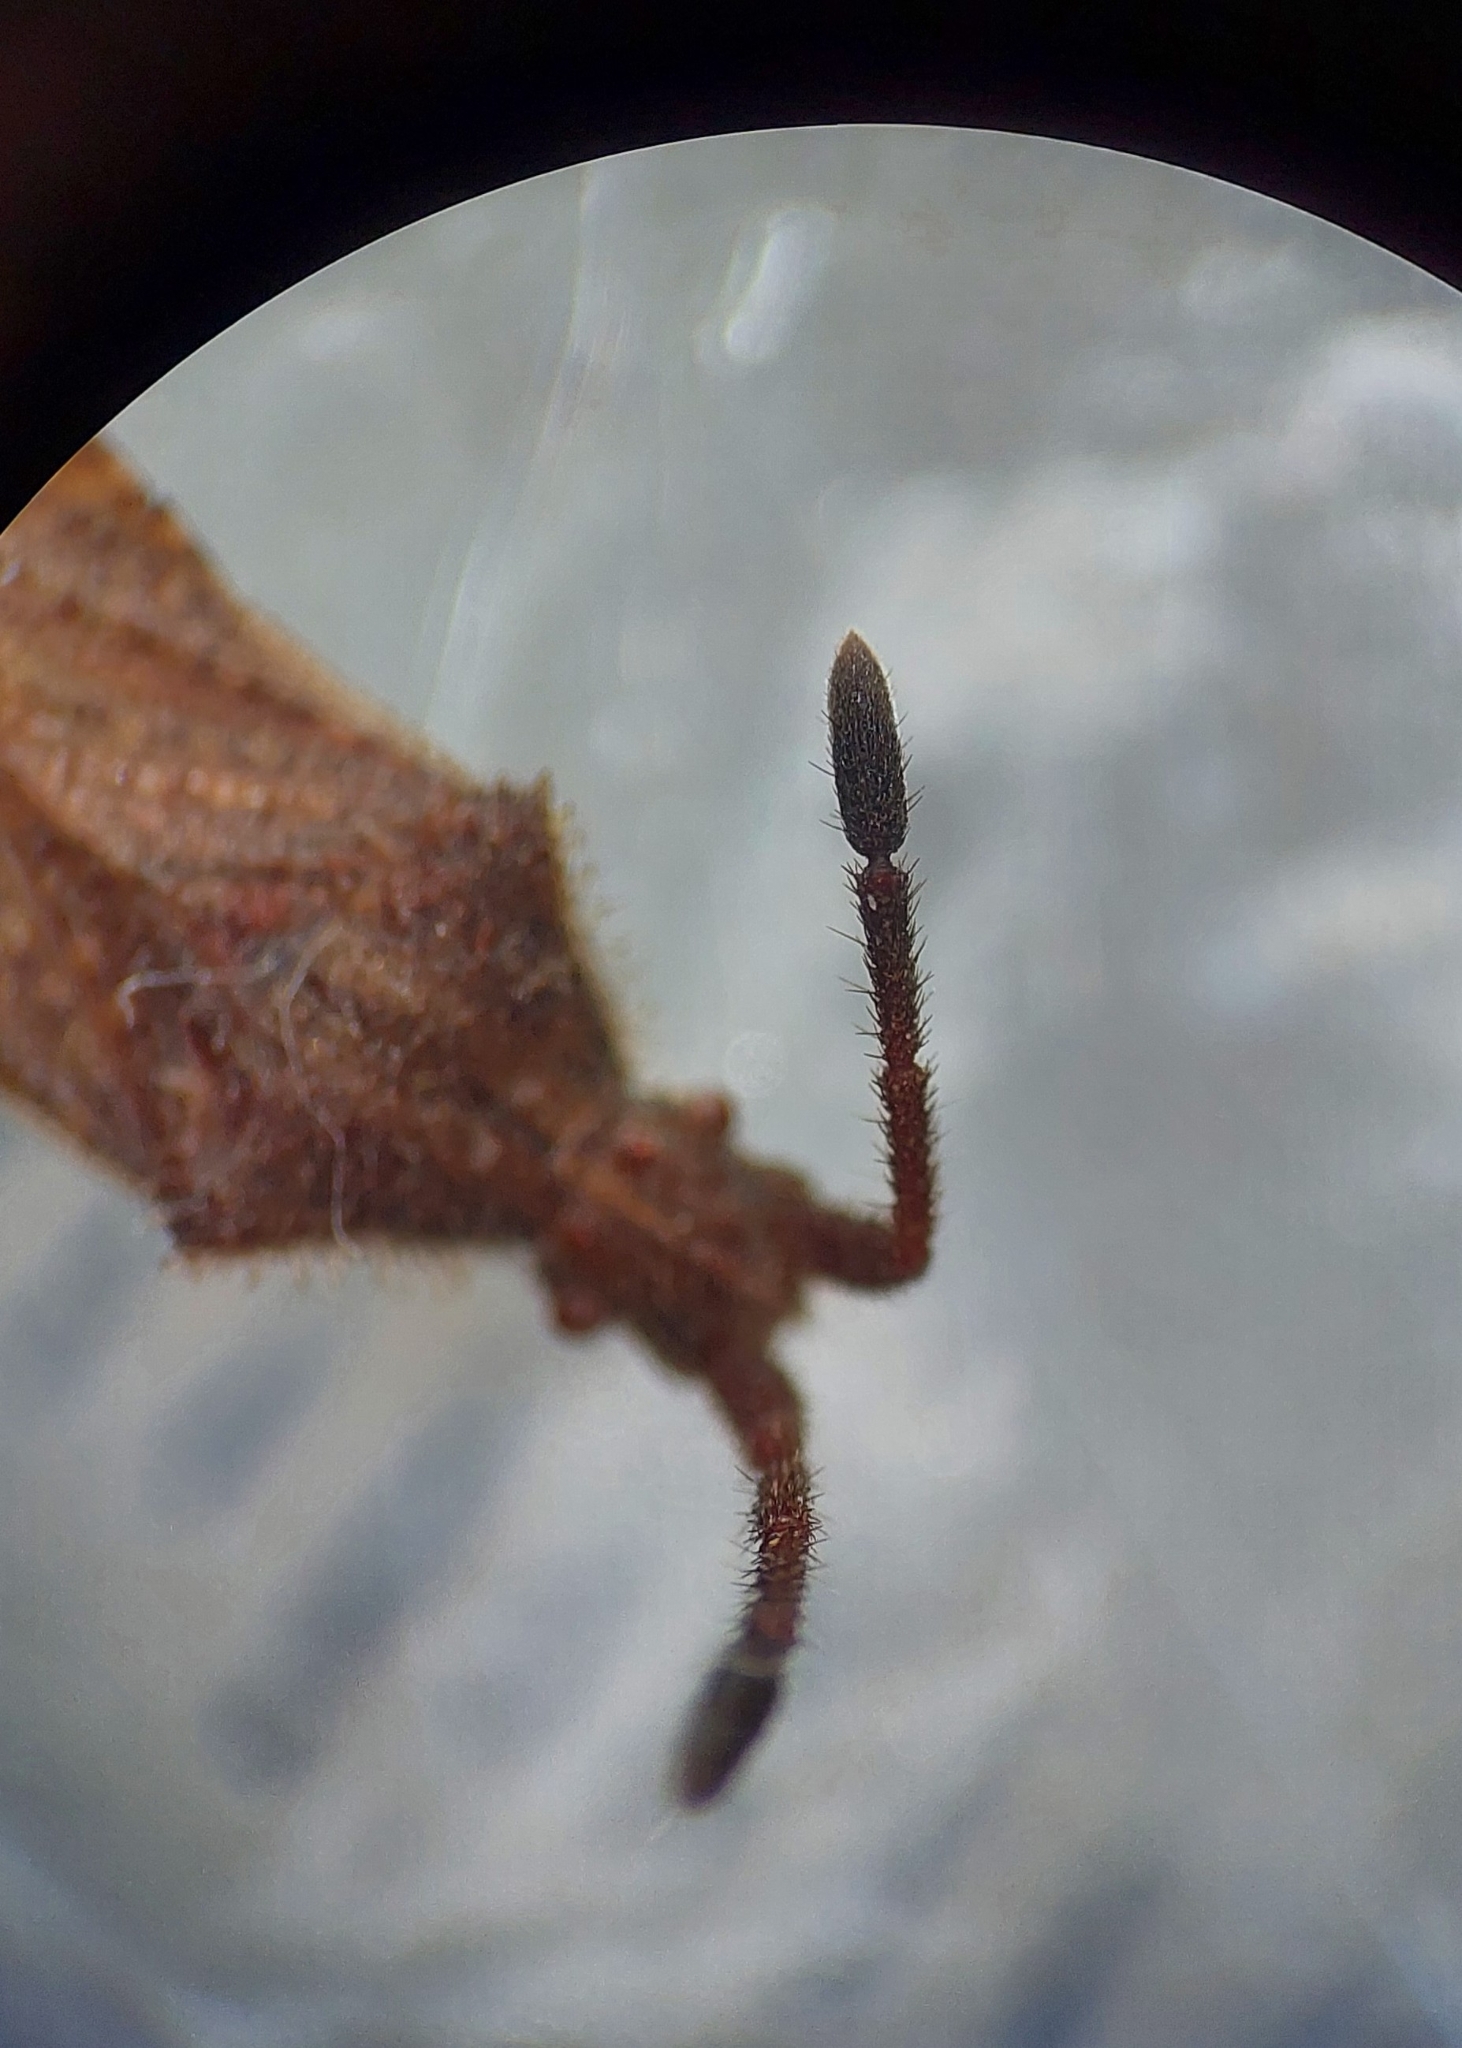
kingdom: Animalia
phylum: Arthropoda
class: Insecta
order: Hemiptera
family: Coreidae
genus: Coriomeris
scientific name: Coriomeris denticulatus
